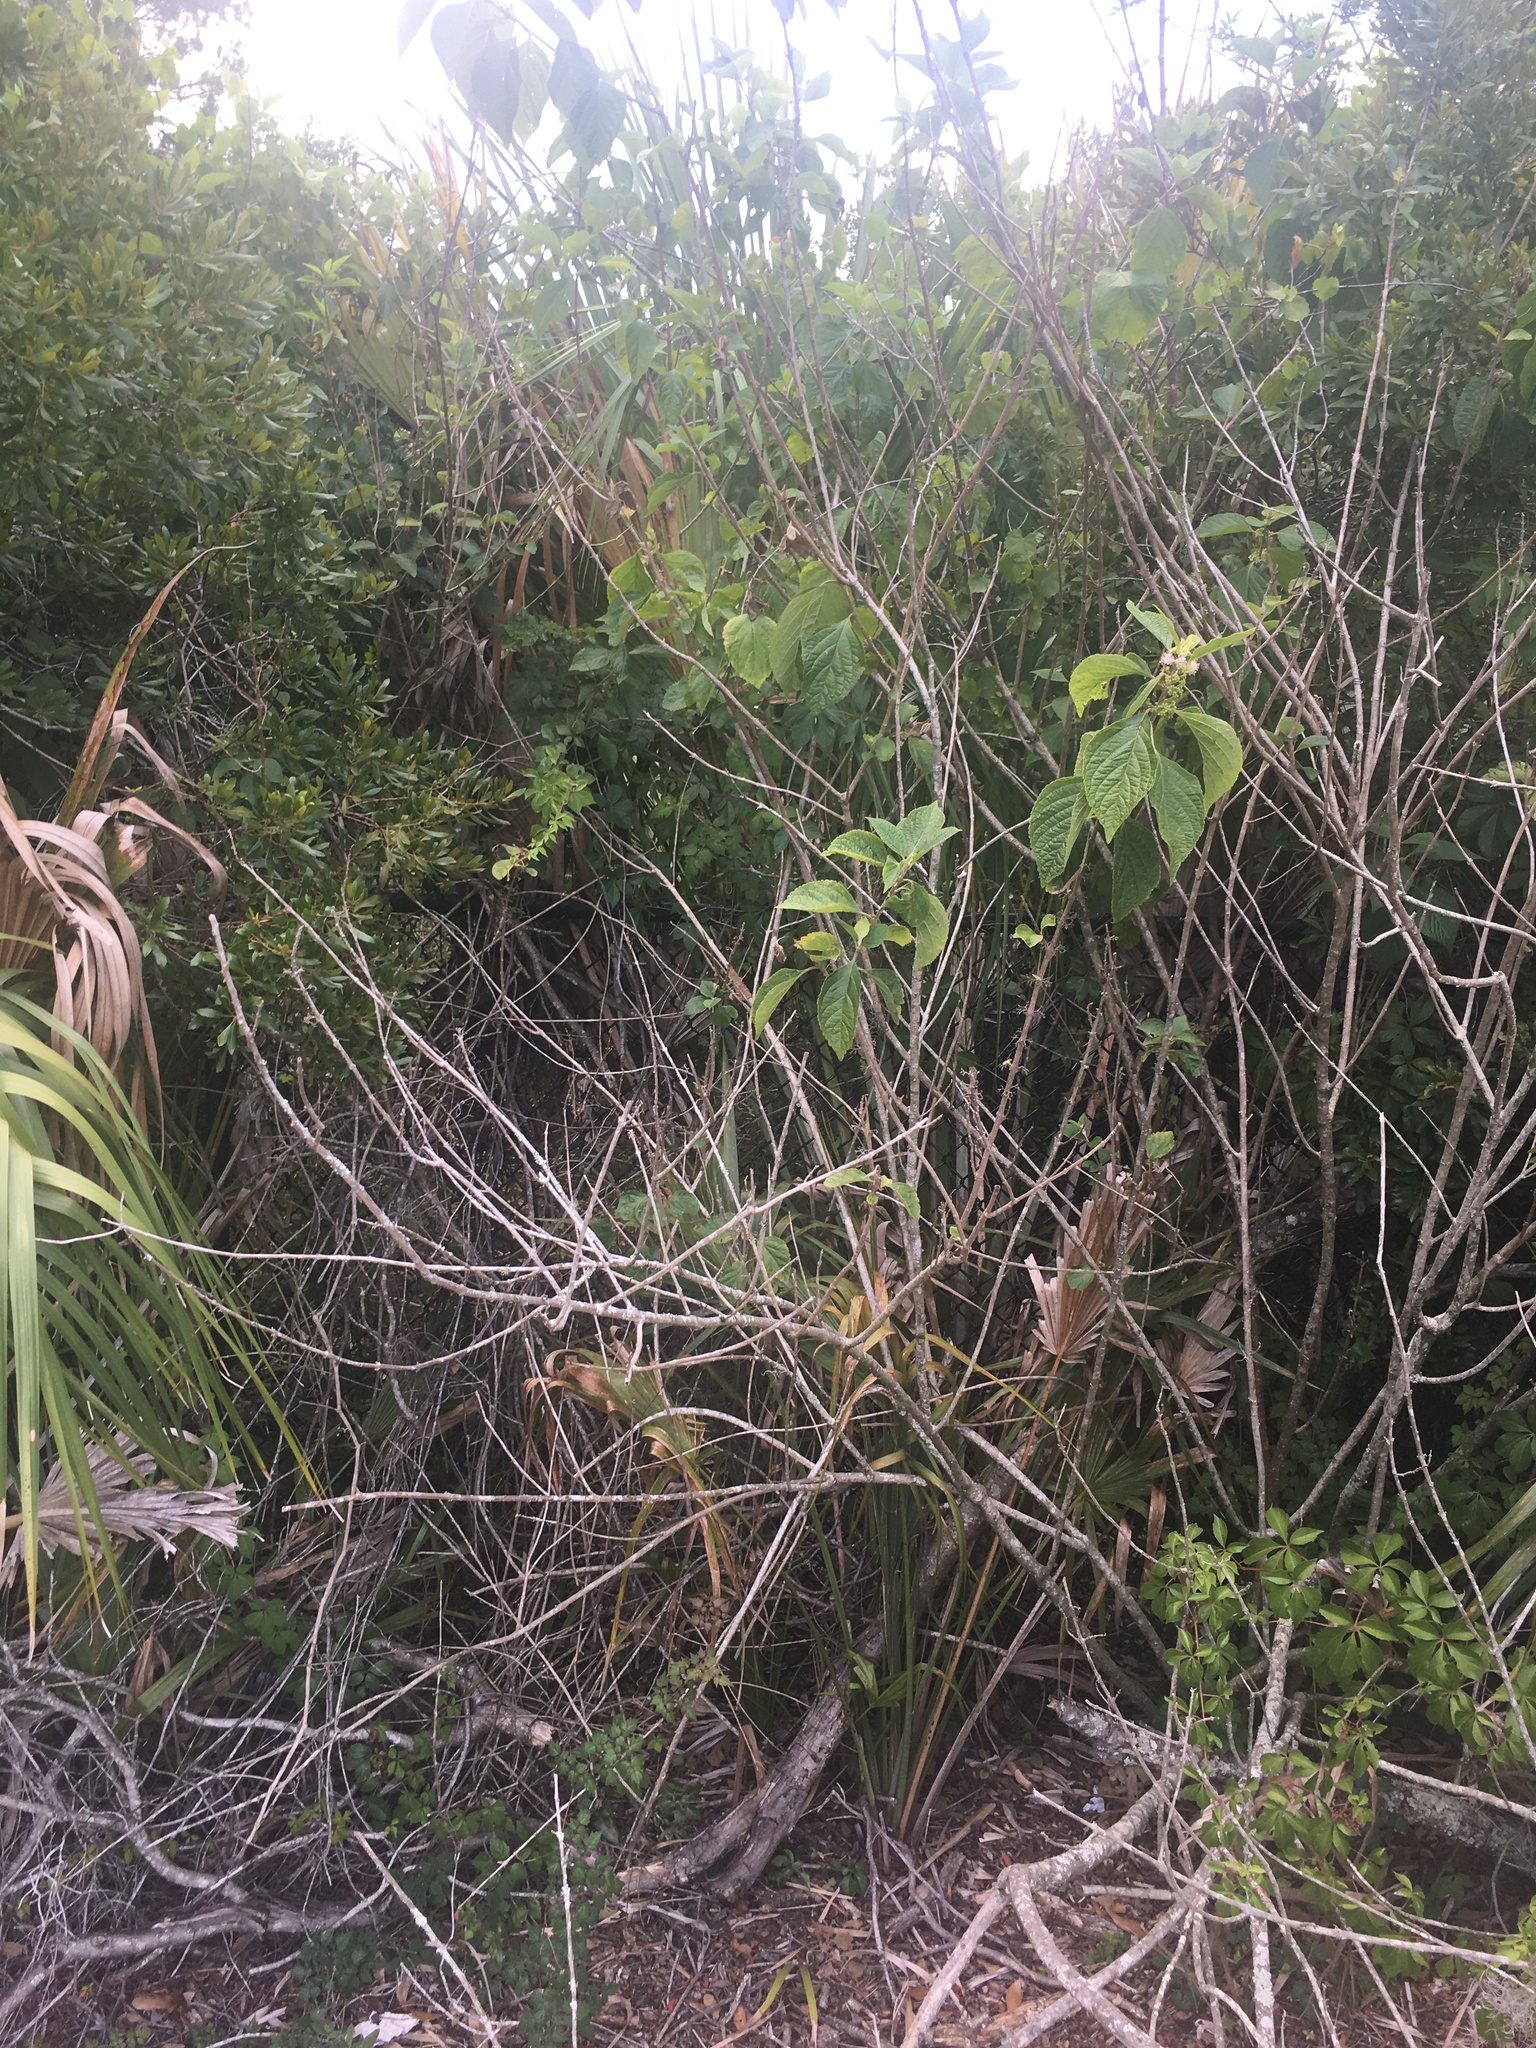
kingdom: Plantae
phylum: Tracheophyta
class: Magnoliopsida
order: Lamiales
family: Lamiaceae
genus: Callicarpa
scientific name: Callicarpa americana
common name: American beautyberry
